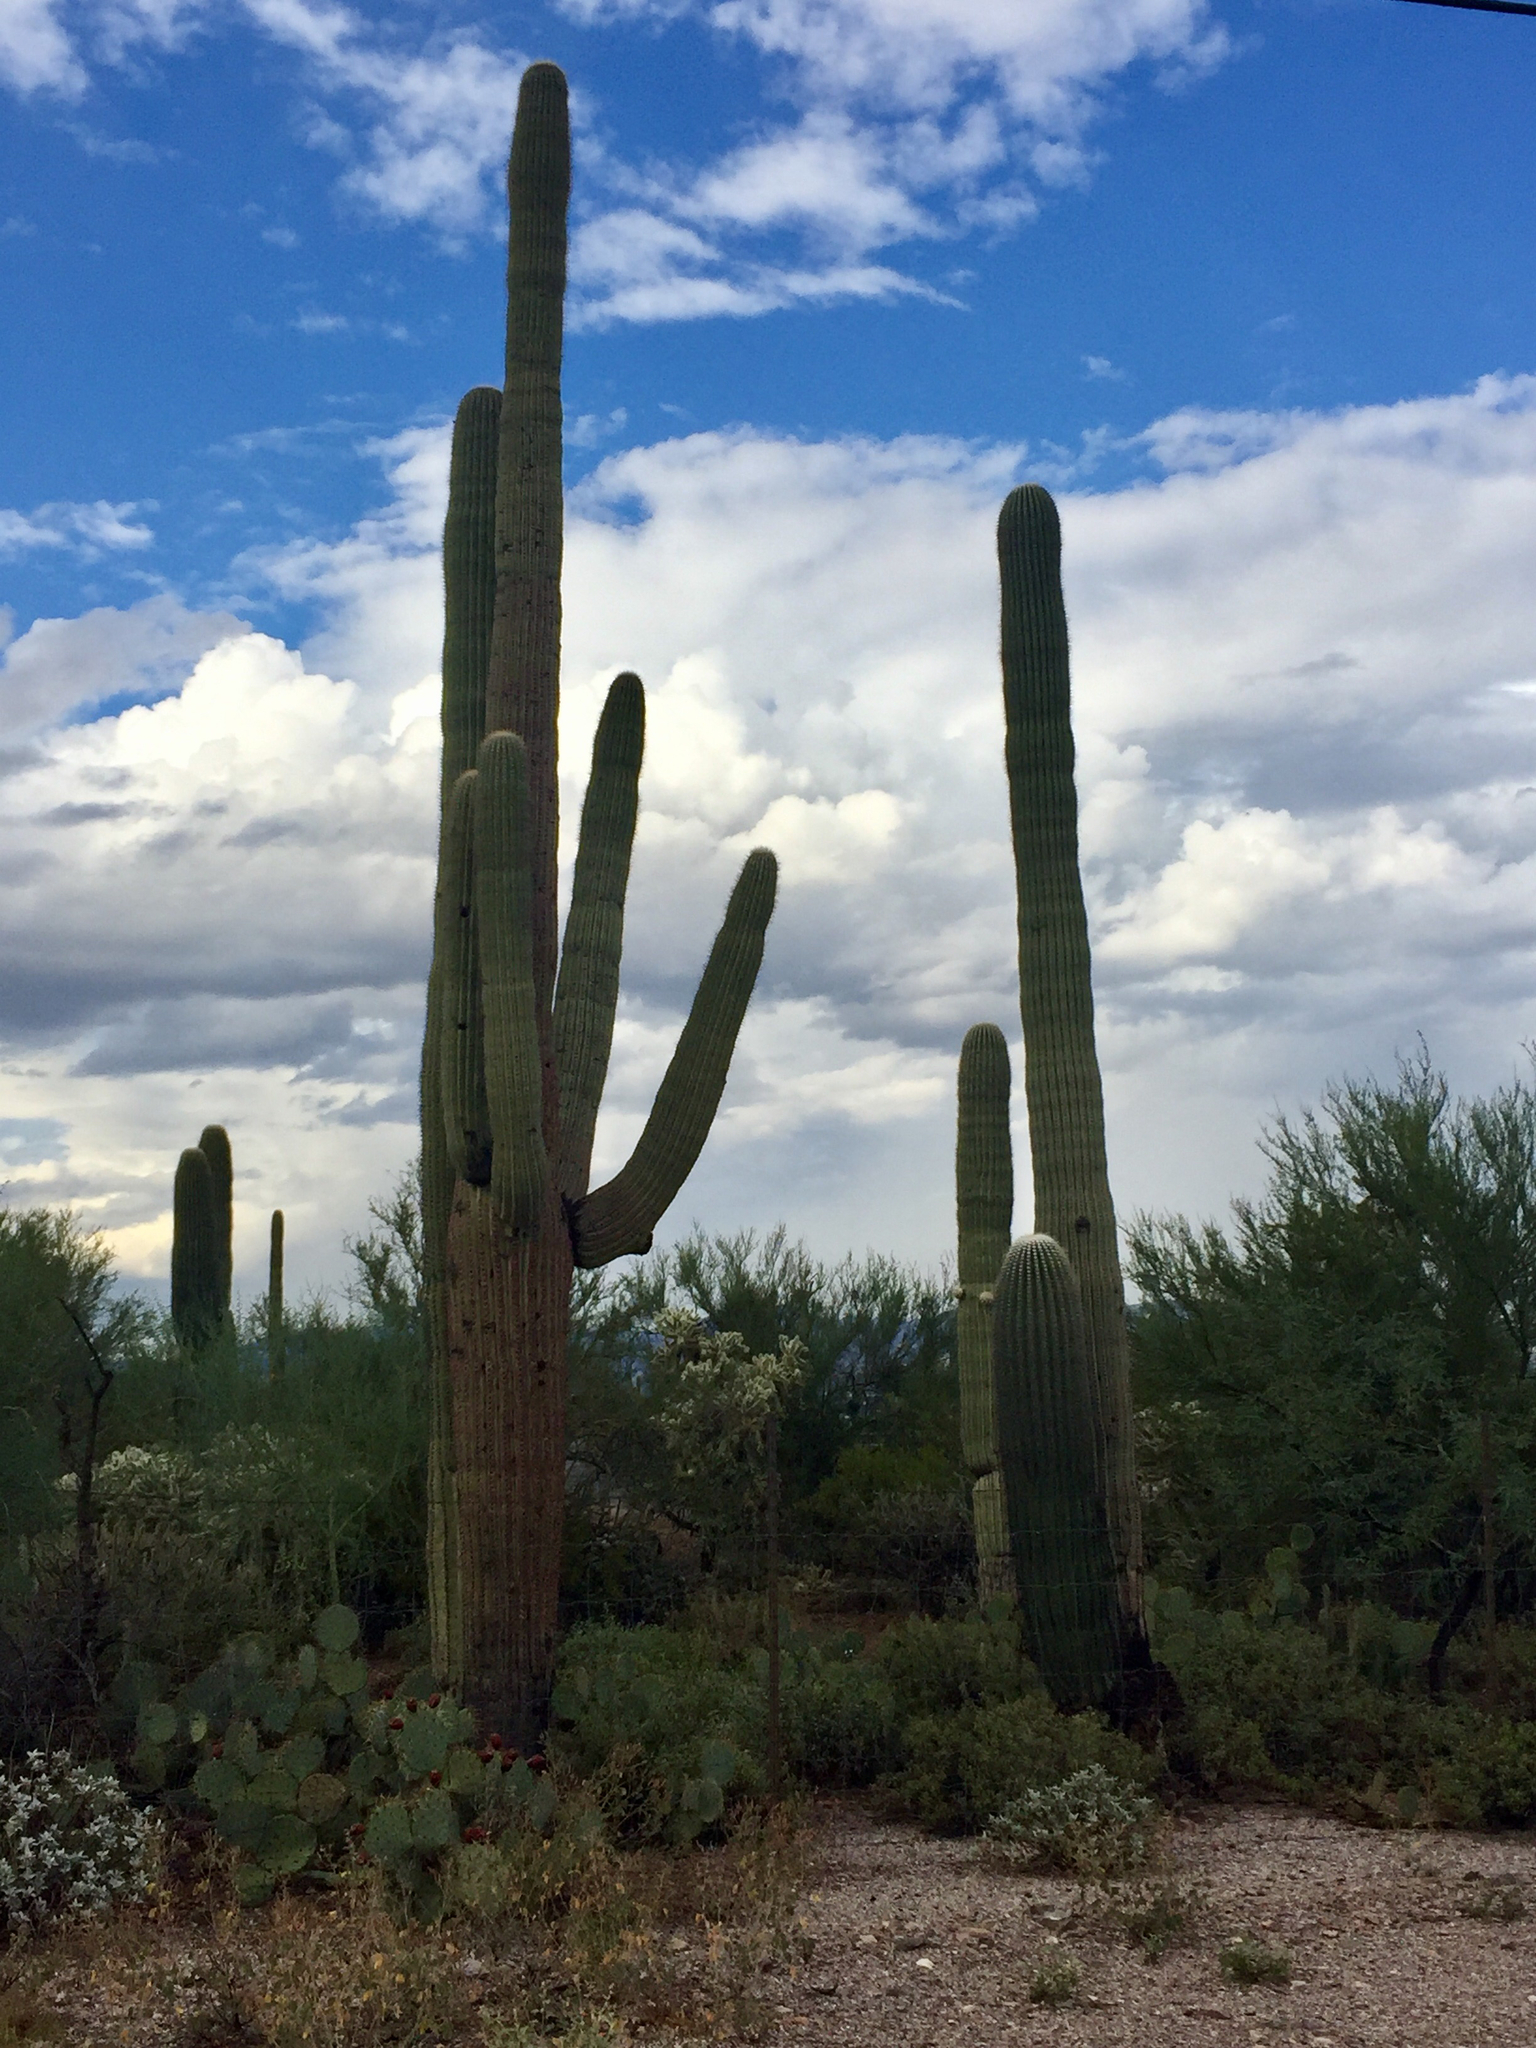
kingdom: Plantae
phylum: Tracheophyta
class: Magnoliopsida
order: Caryophyllales
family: Cactaceae
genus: Carnegiea
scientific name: Carnegiea gigantea
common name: Saguaro
